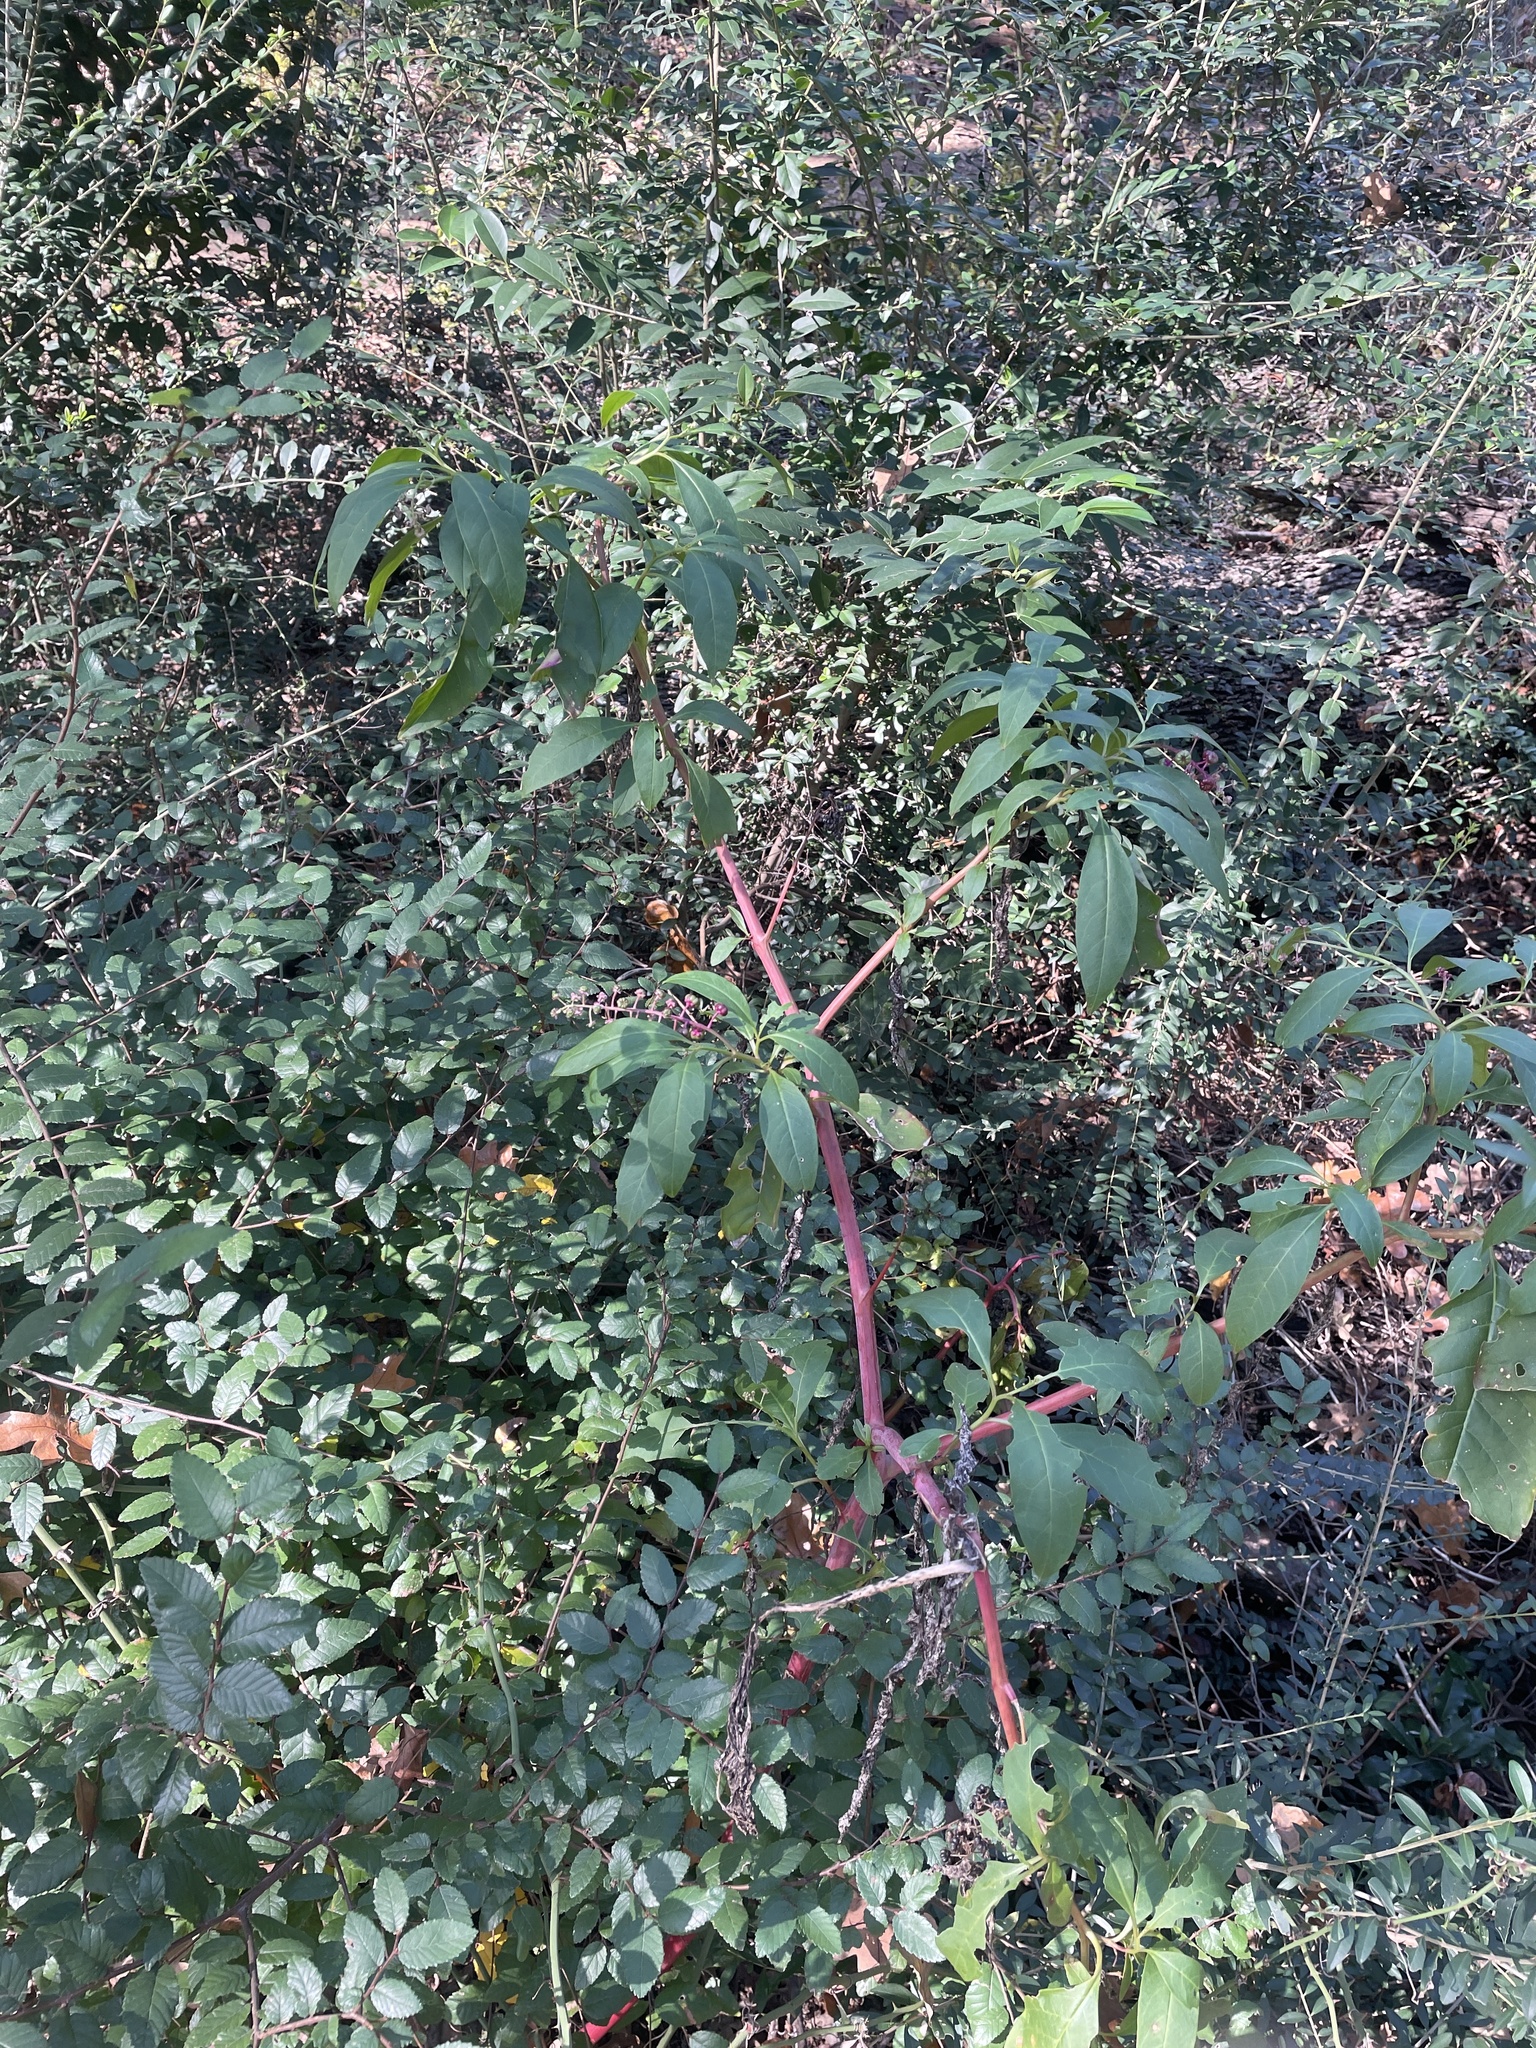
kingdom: Plantae
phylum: Tracheophyta
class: Magnoliopsida
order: Caryophyllales
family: Phytolaccaceae
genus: Phytolacca
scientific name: Phytolacca americana
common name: American pokeweed
